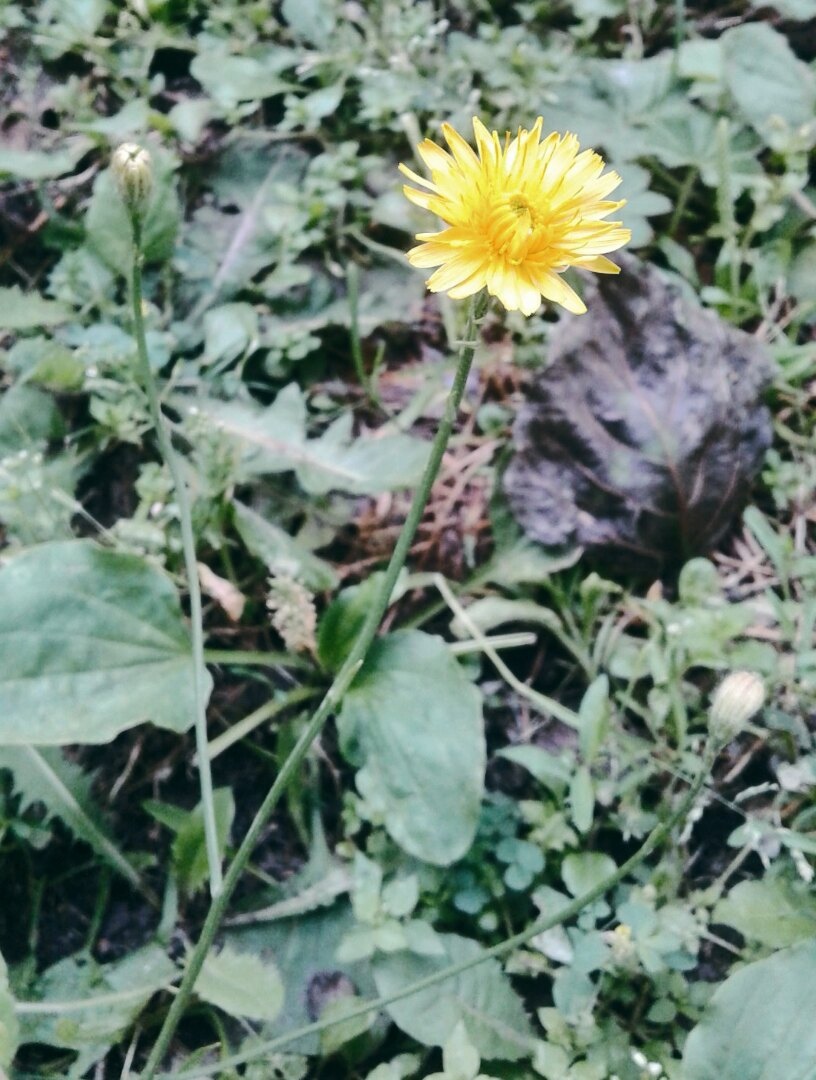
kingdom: Plantae
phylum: Tracheophyta
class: Magnoliopsida
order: Asterales
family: Asteraceae
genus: Scorzoneroides
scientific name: Scorzoneroides autumnalis
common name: Autumn hawkbit
